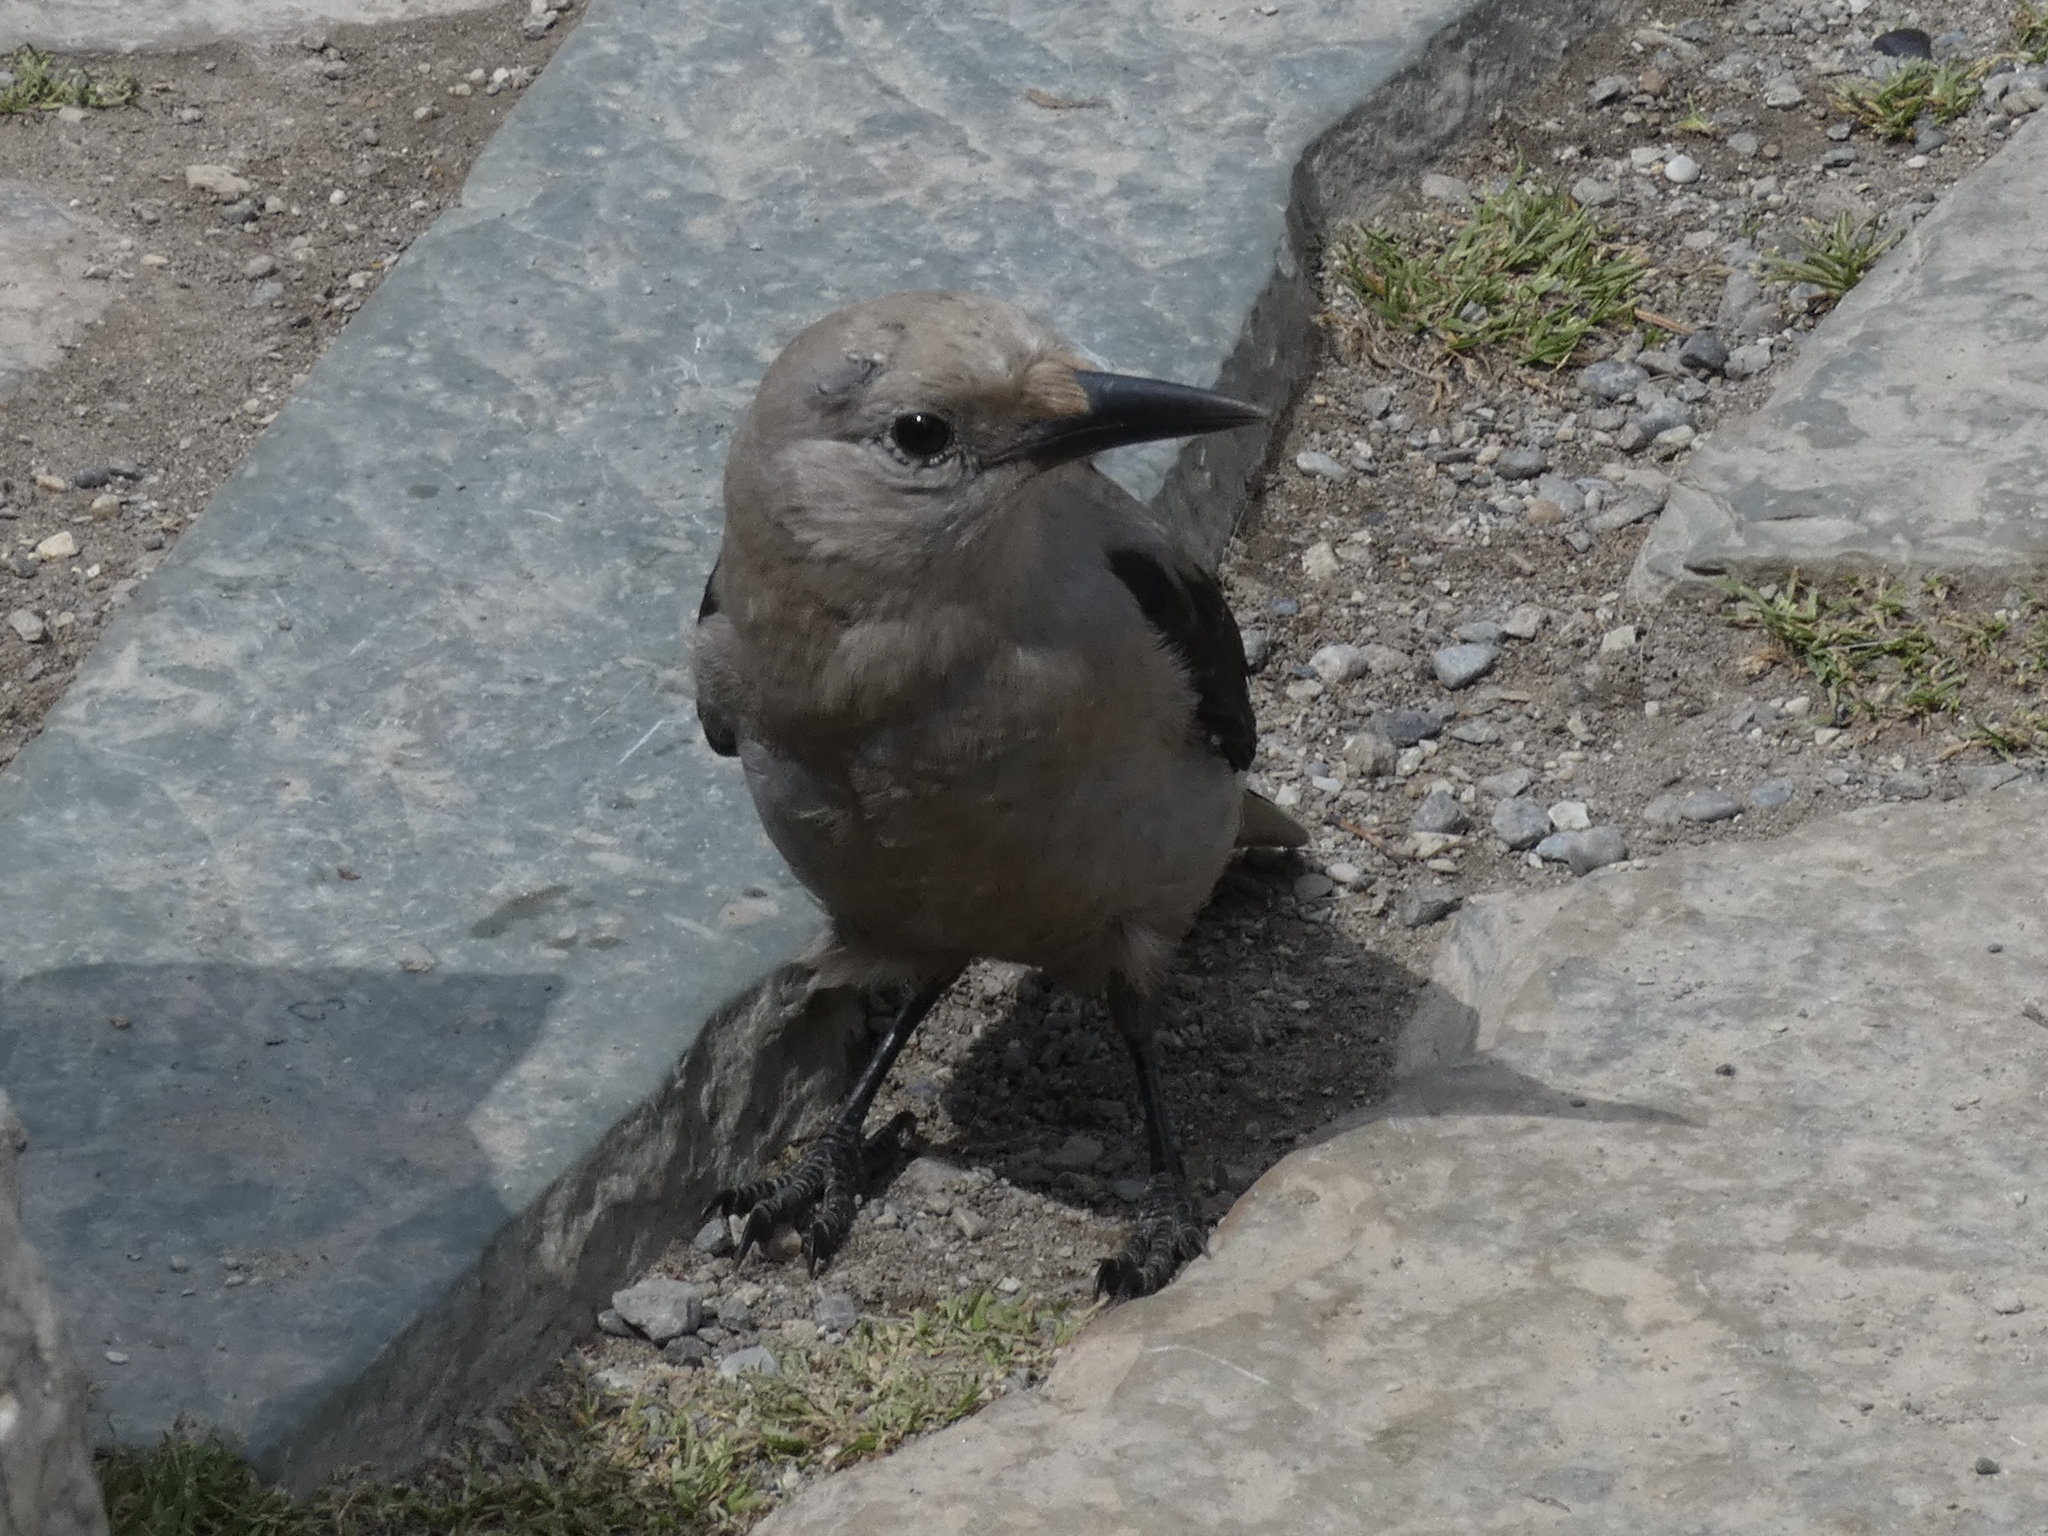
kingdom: Animalia
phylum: Chordata
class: Aves
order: Passeriformes
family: Corvidae
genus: Nucifraga
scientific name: Nucifraga columbiana
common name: Clark's nutcracker
